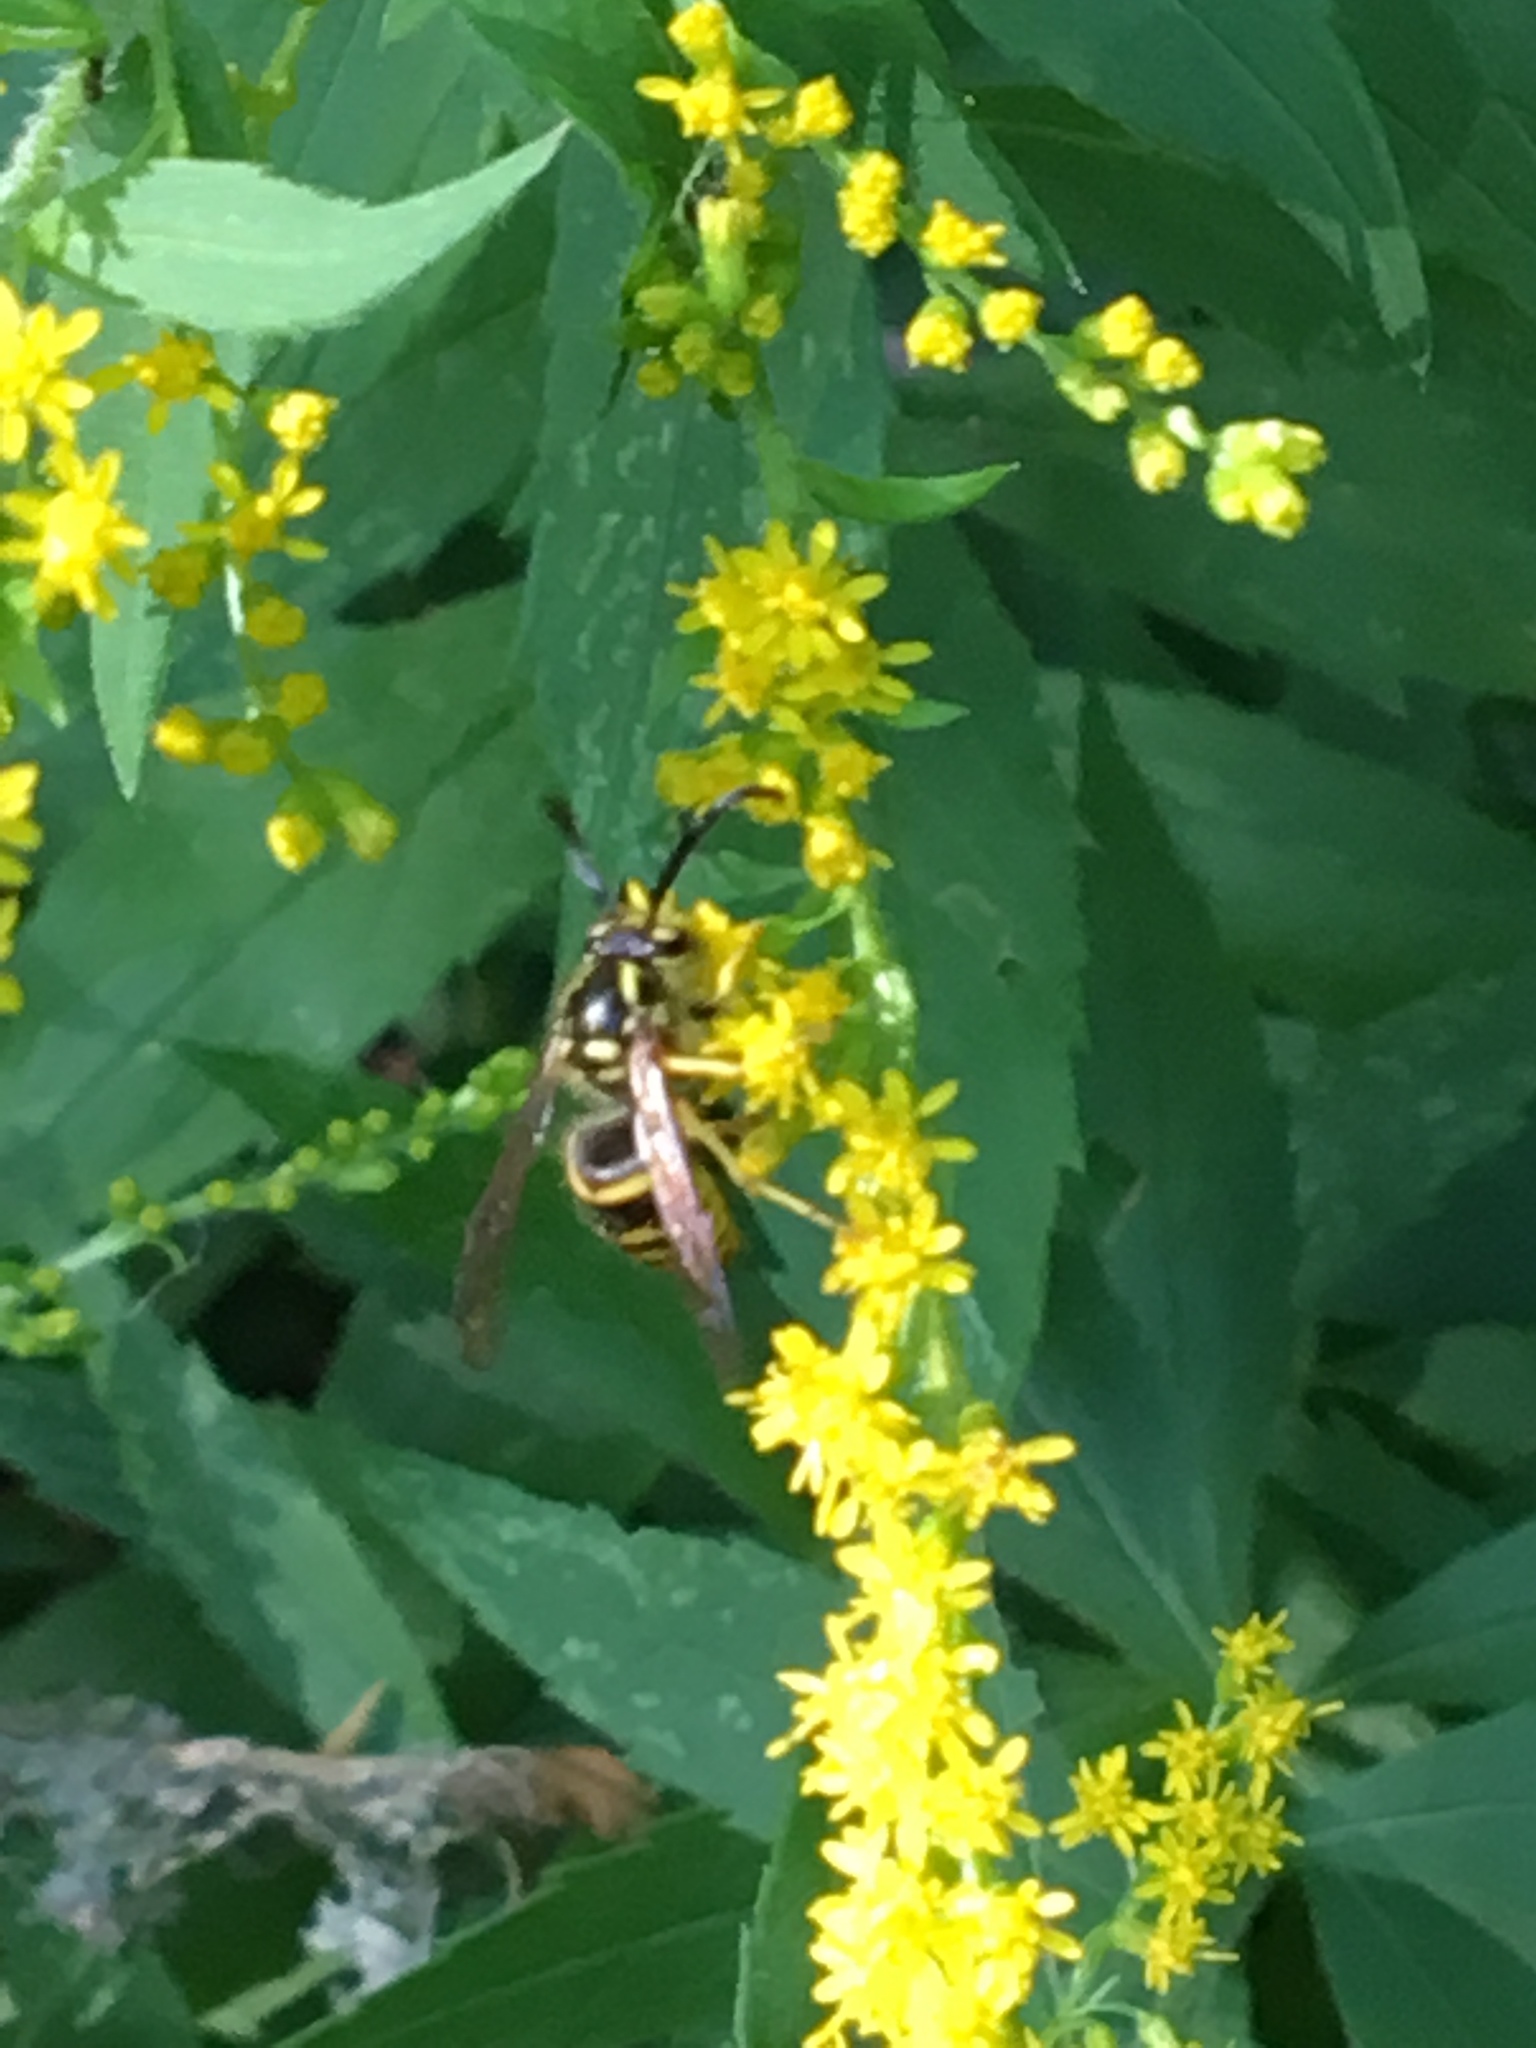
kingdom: Animalia
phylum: Arthropoda
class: Insecta
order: Hymenoptera
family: Vespidae
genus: Dolichovespula
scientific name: Dolichovespula arenaria
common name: Aerial yellowjacket
